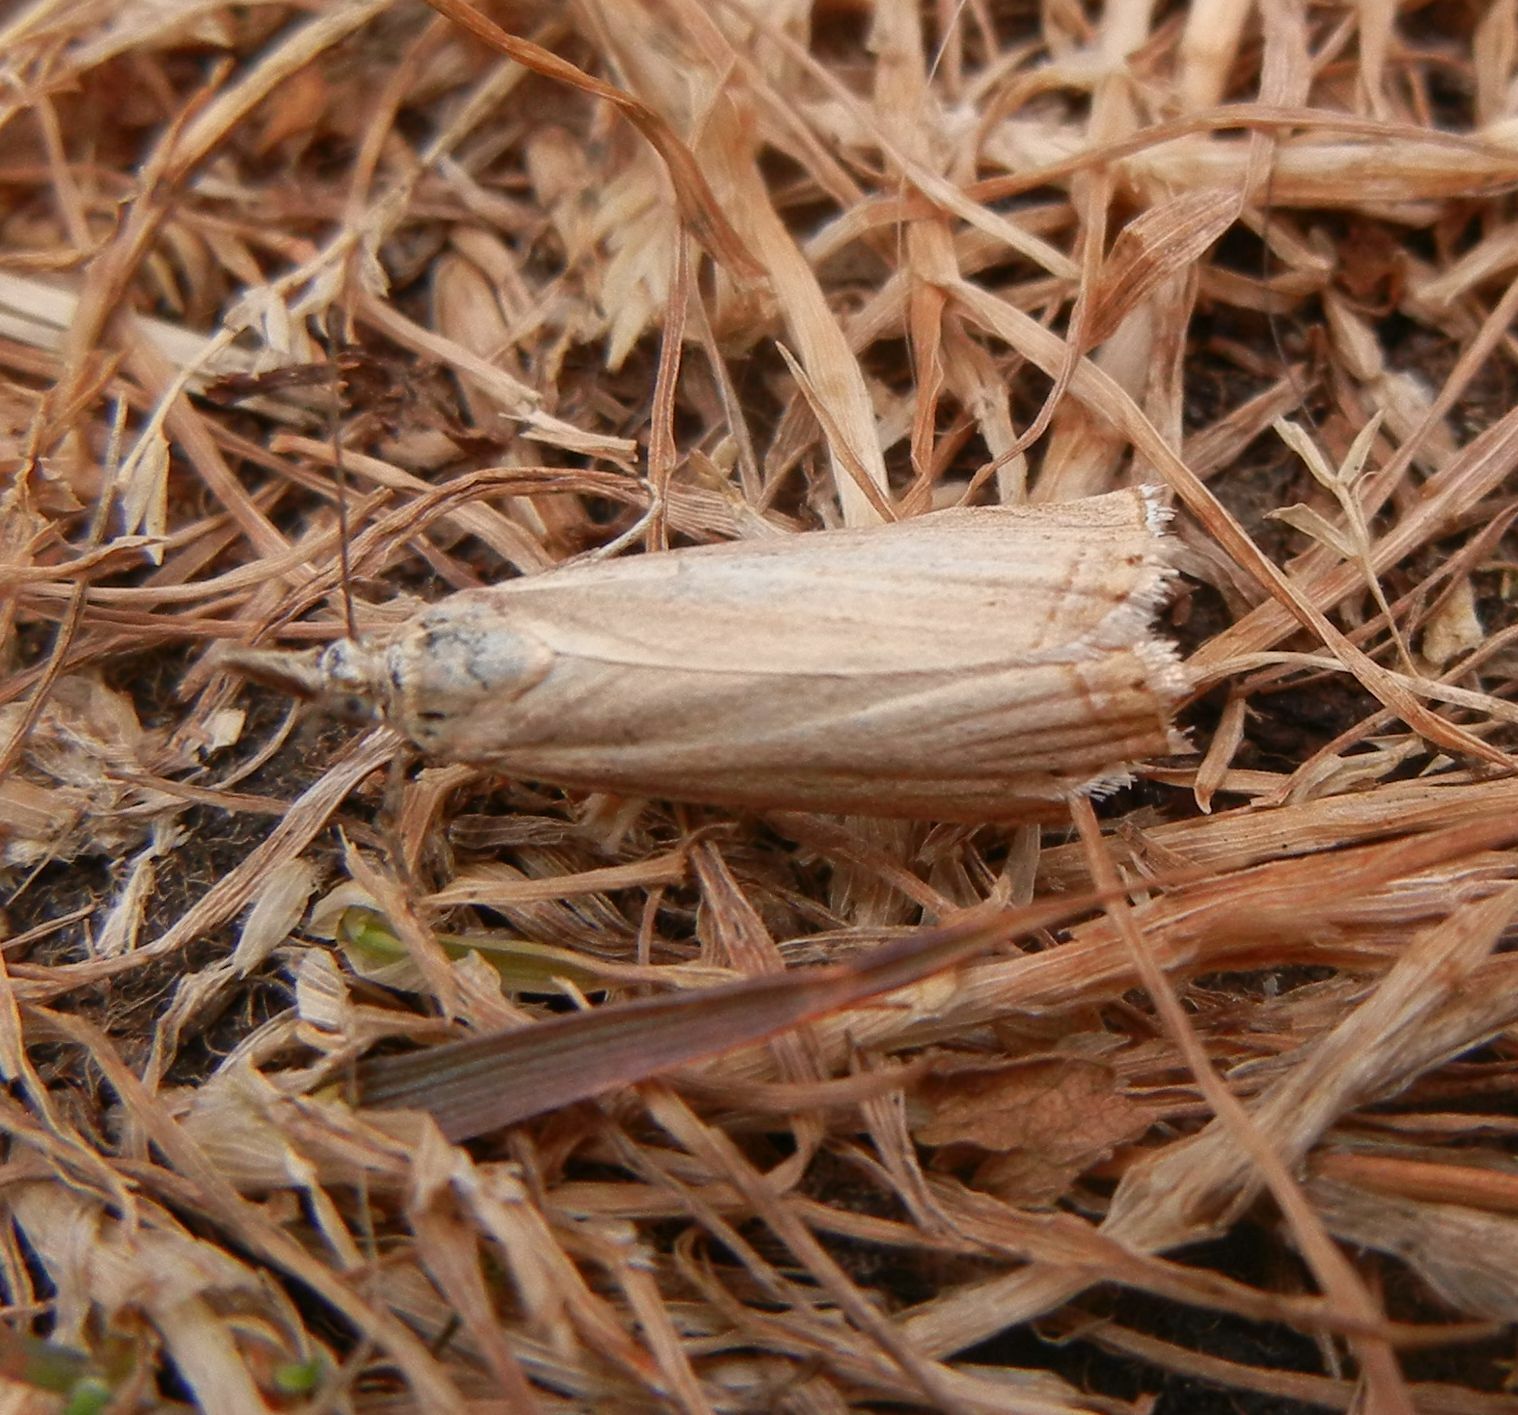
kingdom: Animalia
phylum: Arthropoda
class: Insecta
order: Lepidoptera
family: Crambidae
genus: Chrysoteuchia
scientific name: Chrysoteuchia culmella
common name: Garden grass-veneer
